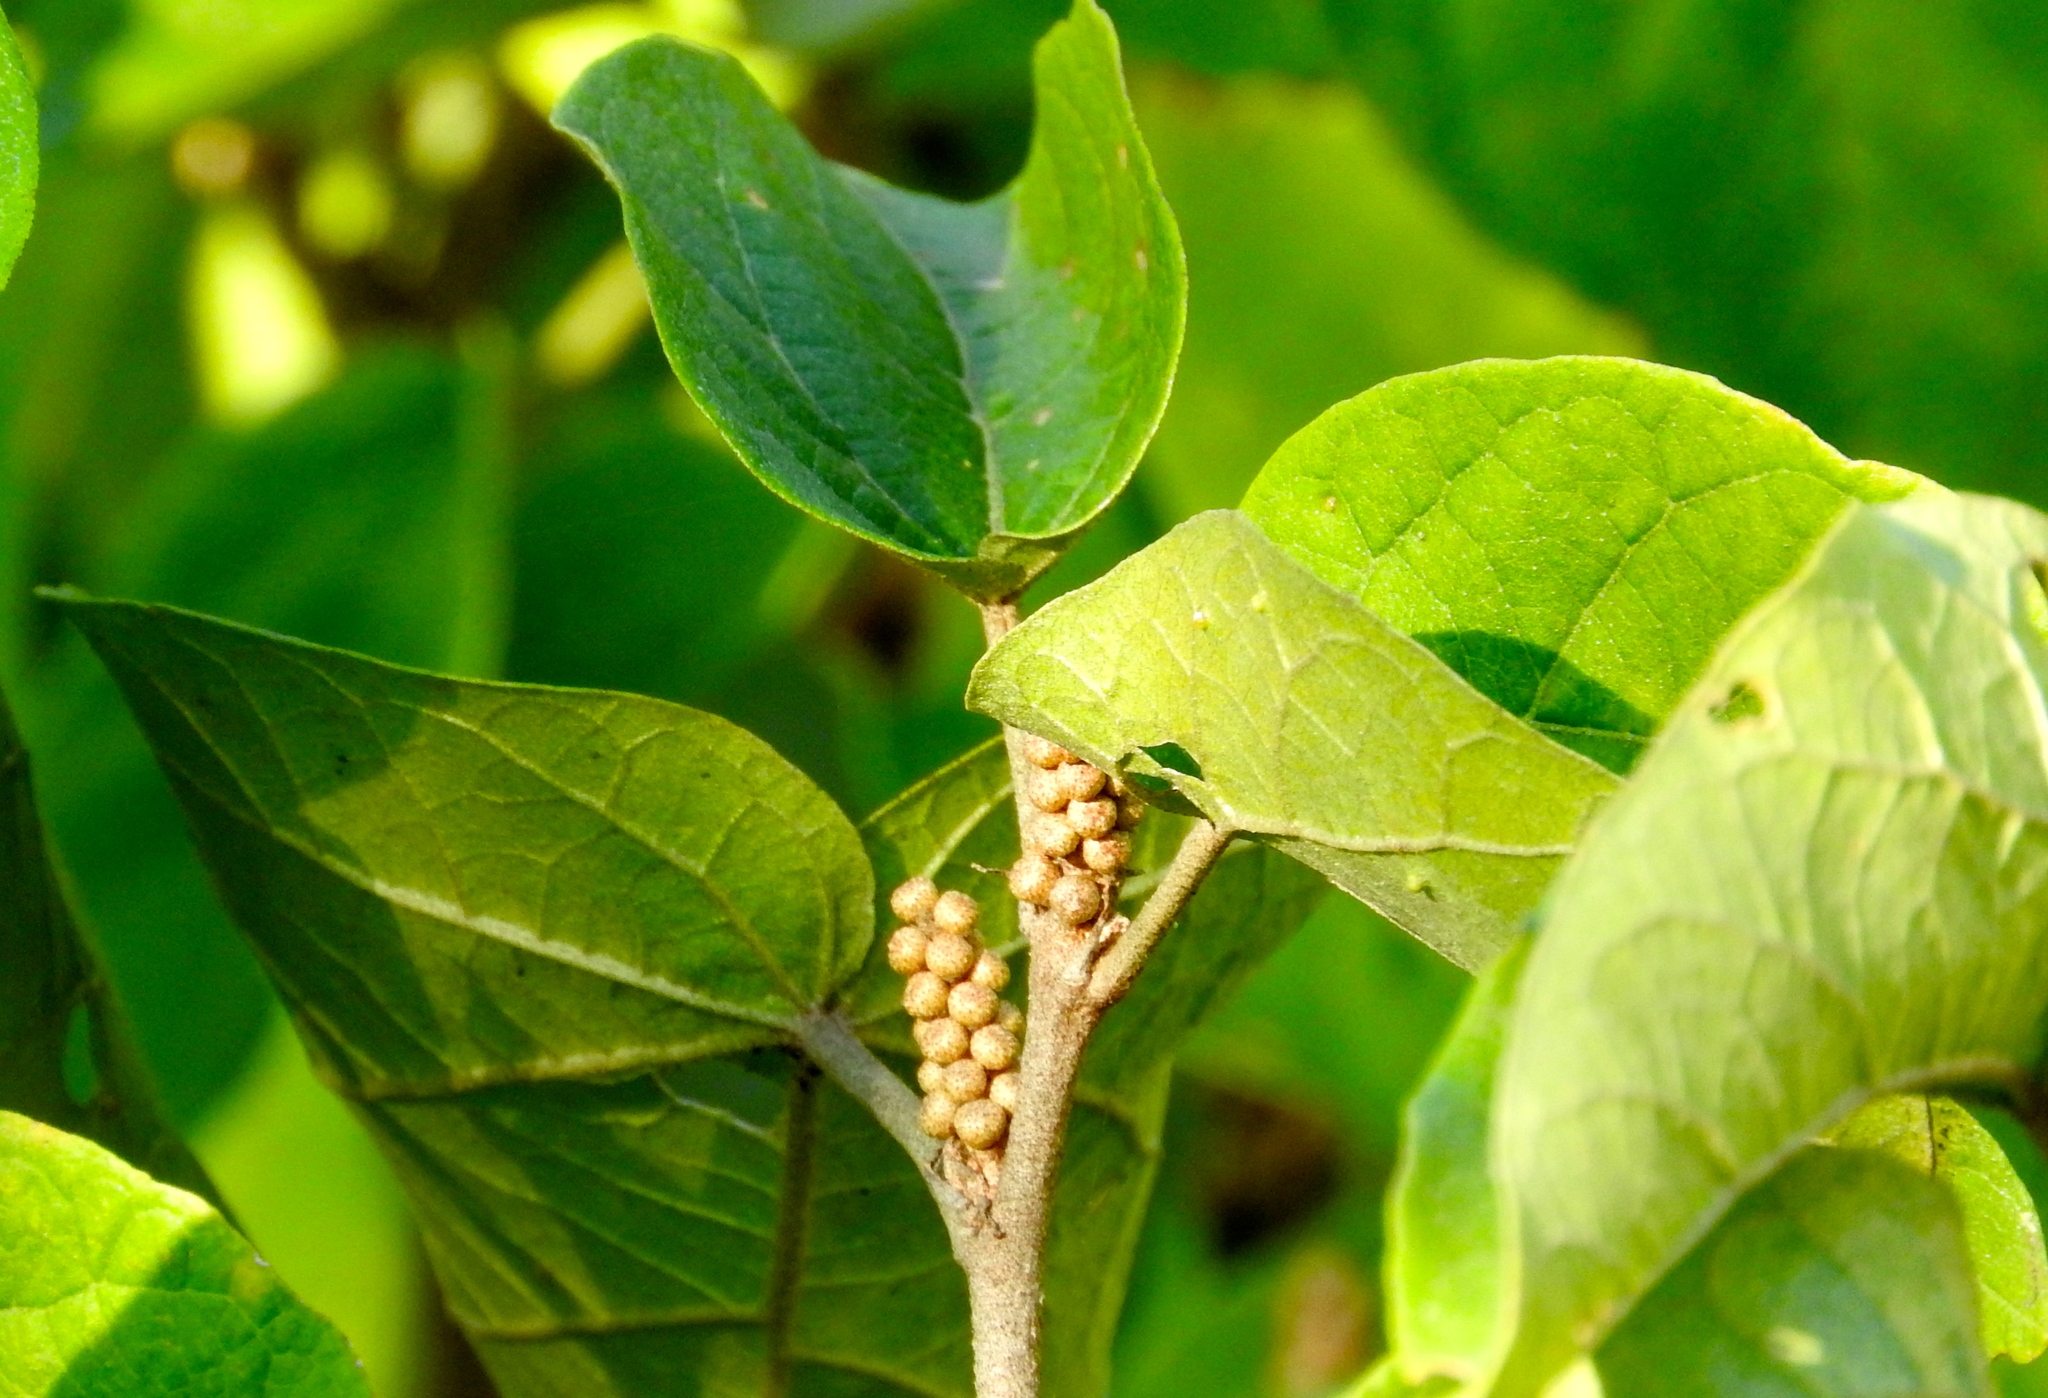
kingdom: Plantae
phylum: Tracheophyta
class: Magnoliopsida
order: Malpighiales
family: Euphorbiaceae
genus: Croton
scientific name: Croton lindquistii
